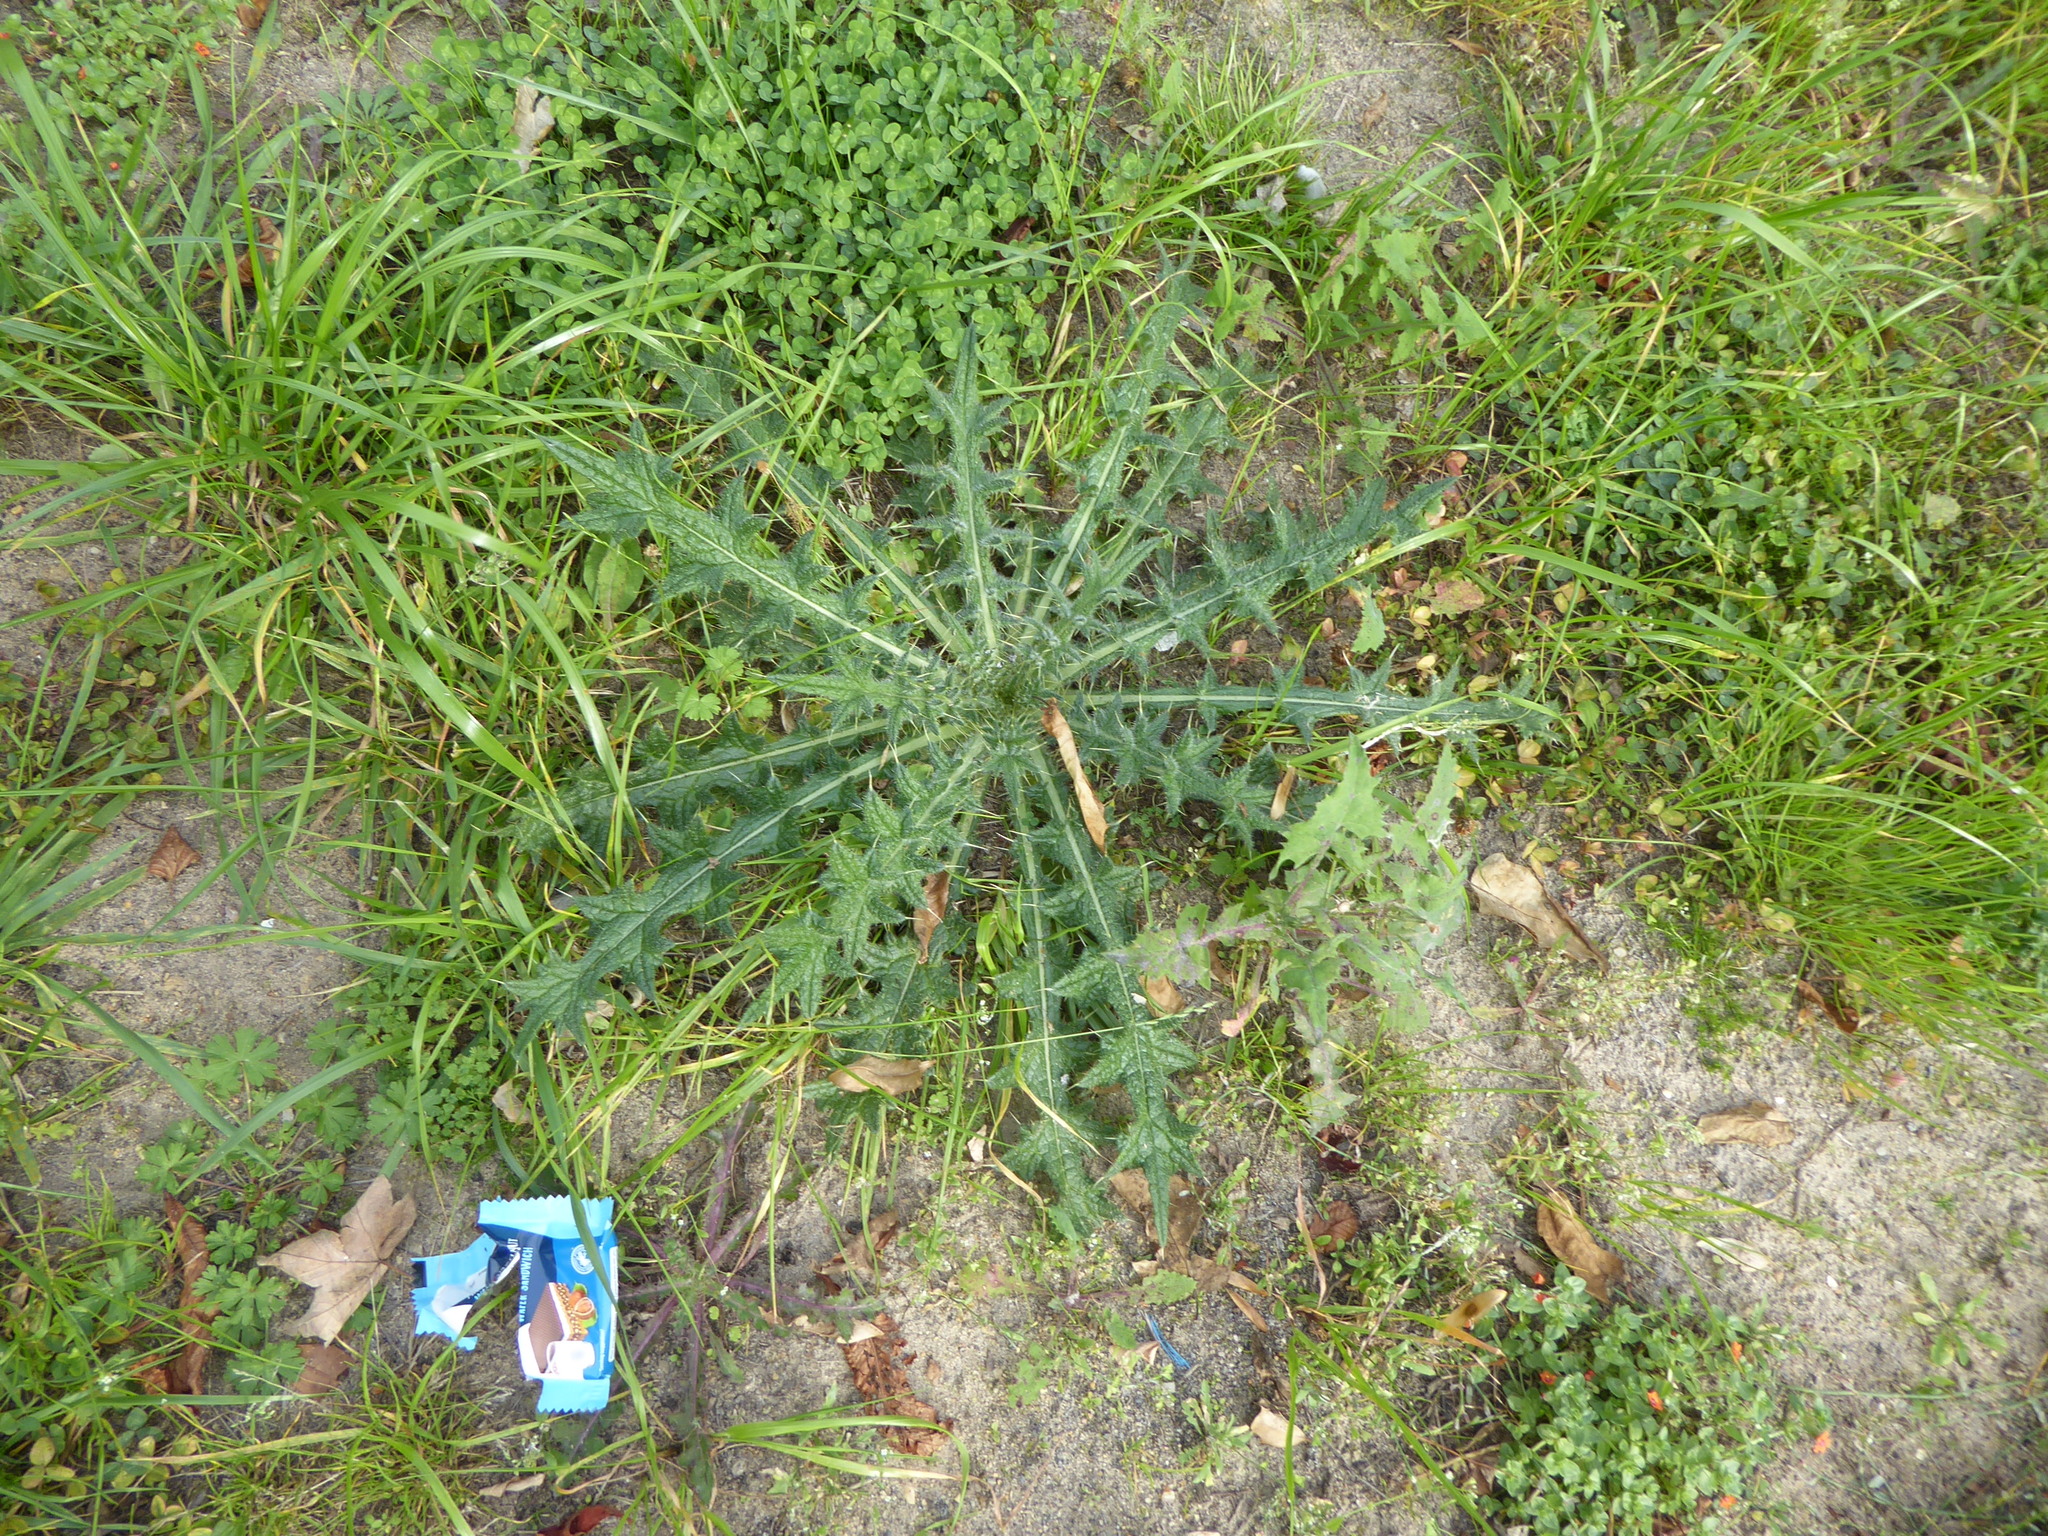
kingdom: Plantae
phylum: Tracheophyta
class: Magnoliopsida
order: Asterales
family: Asteraceae
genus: Cirsium
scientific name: Cirsium vulgare
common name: Bull thistle
